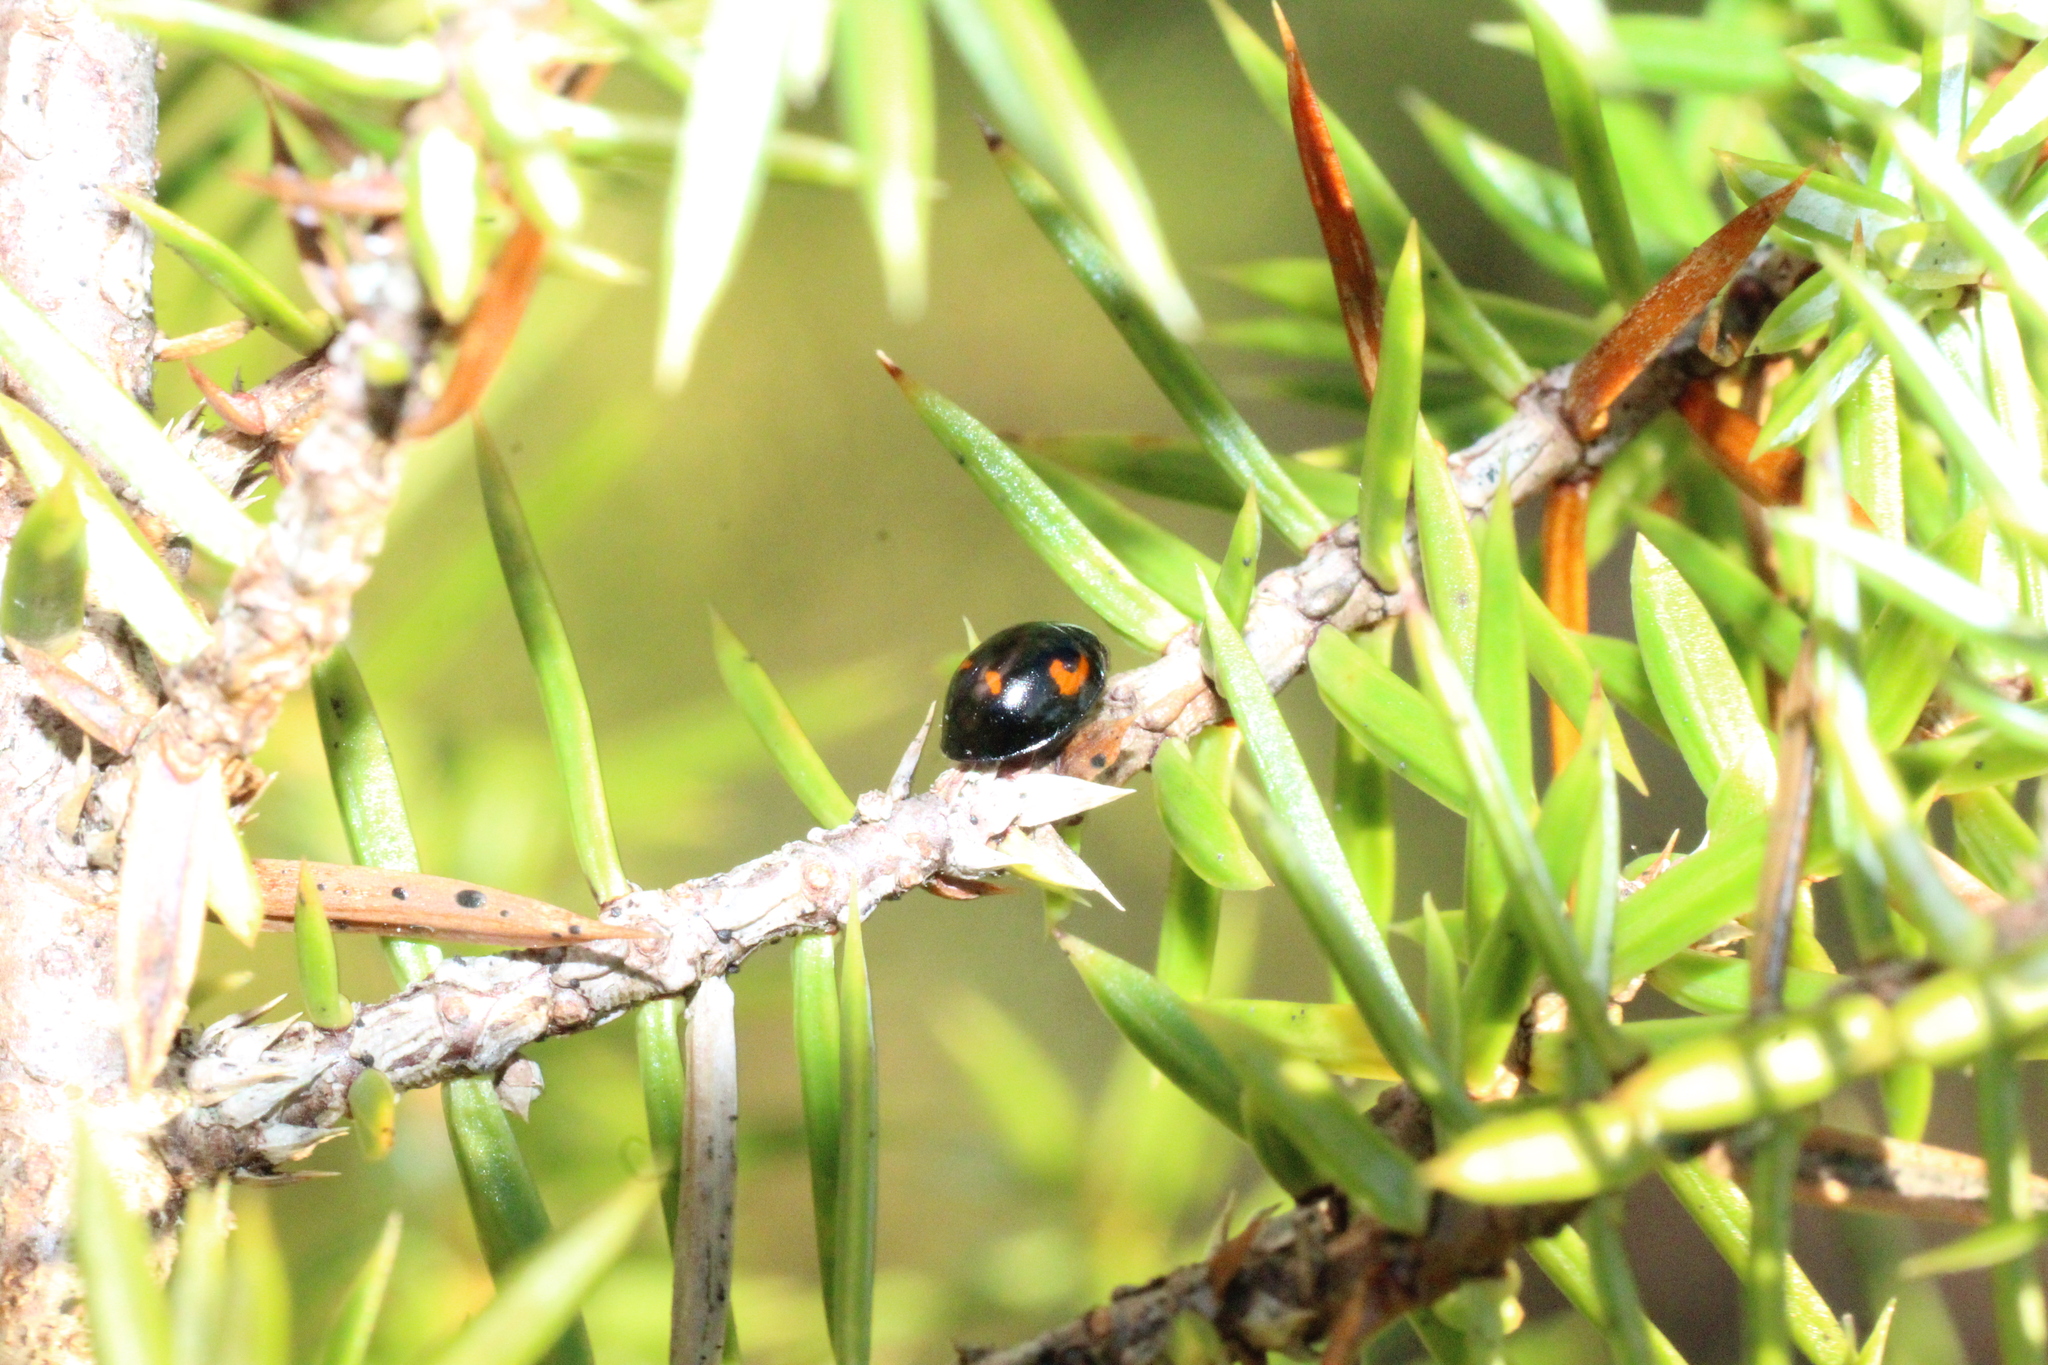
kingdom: Animalia
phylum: Arthropoda
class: Insecta
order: Coleoptera
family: Coccinellidae
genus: Brumus
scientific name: Brumus quadripustulatus
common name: Ladybird beetle
